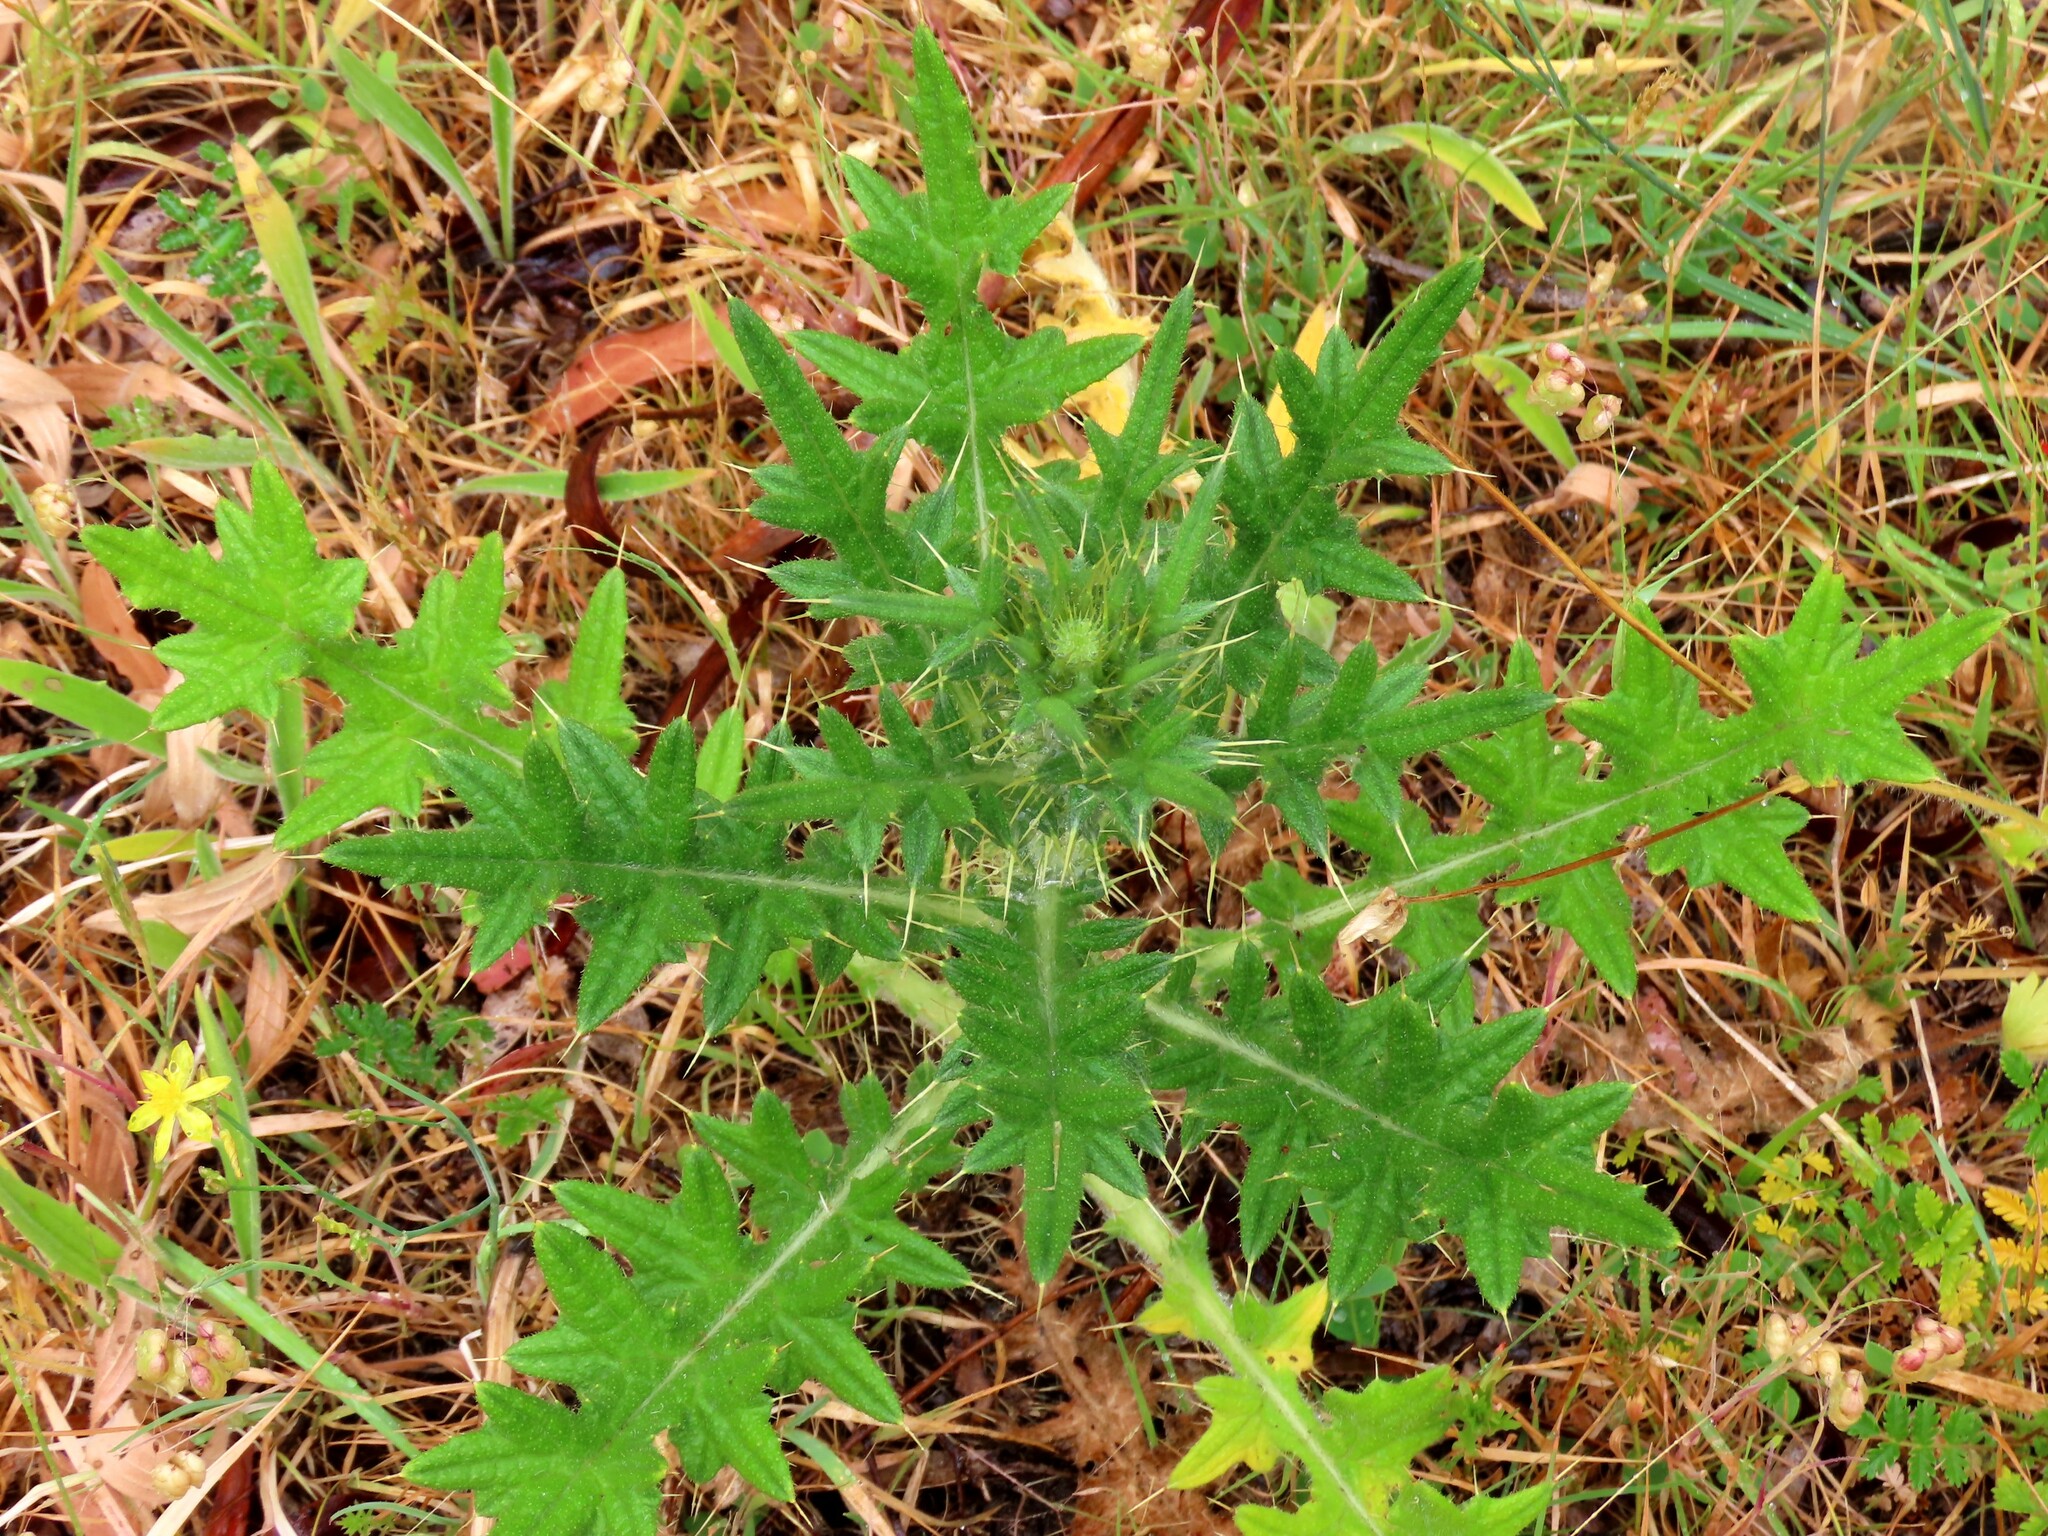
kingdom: Plantae
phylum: Tracheophyta
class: Magnoliopsida
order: Asterales
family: Asteraceae
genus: Cirsium
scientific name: Cirsium vulgare
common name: Bull thistle
